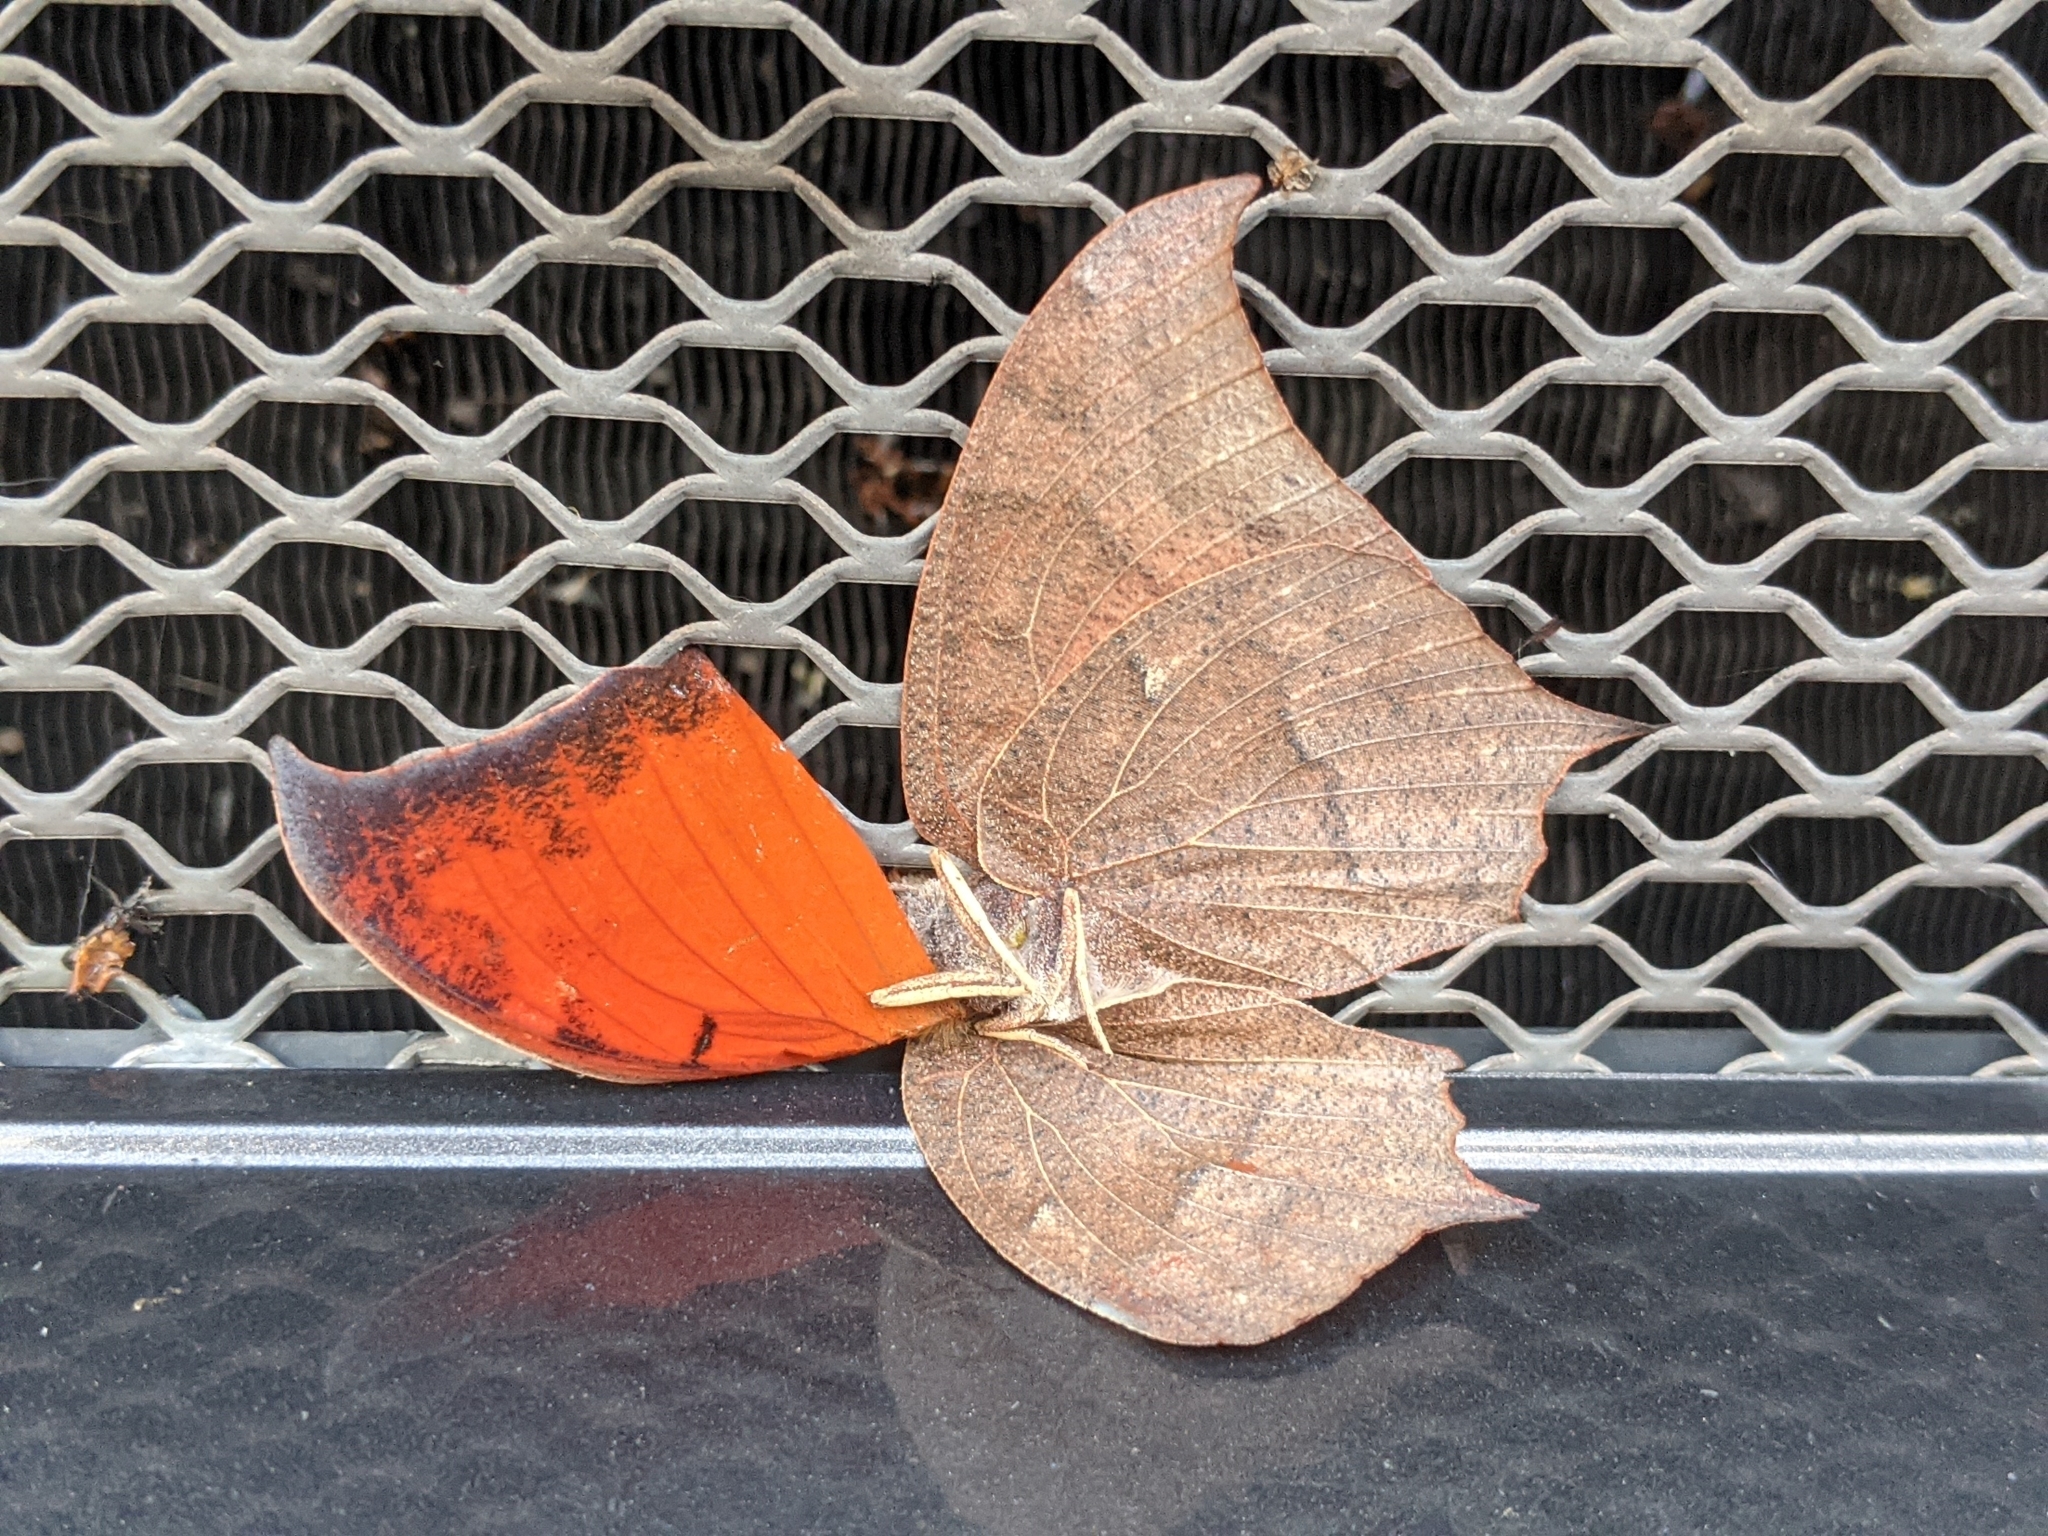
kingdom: Animalia
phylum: Arthropoda
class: Insecta
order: Lepidoptera
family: Nymphalidae
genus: Anaea
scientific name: Anaea andria
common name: Goatweed leafwing
